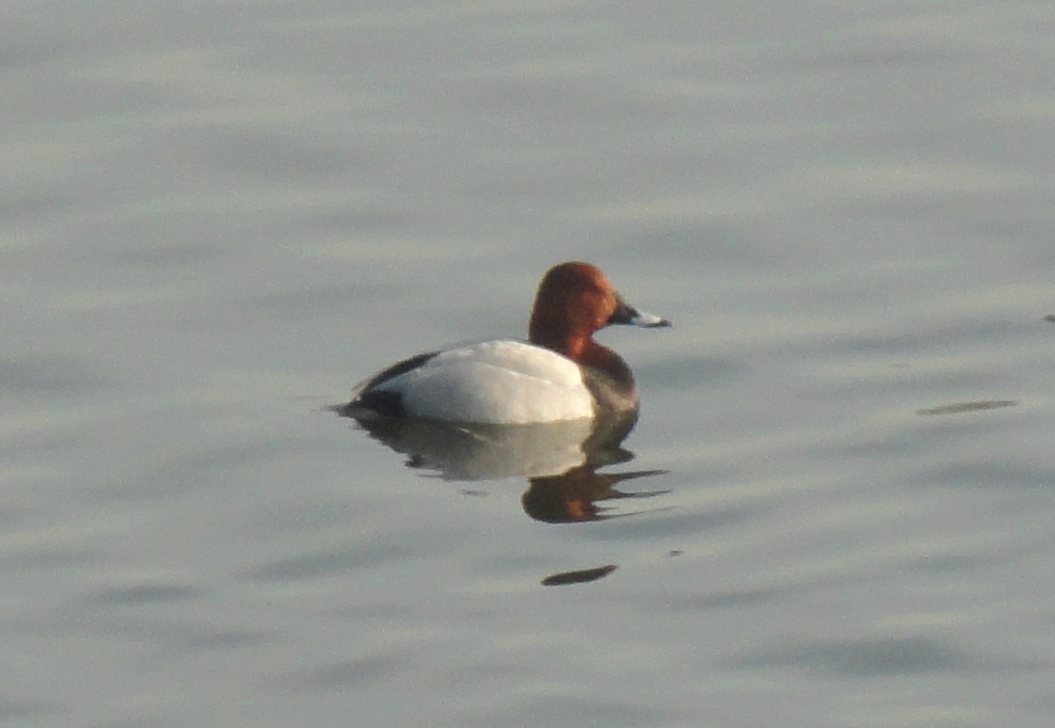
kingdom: Animalia
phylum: Chordata
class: Aves
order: Anseriformes
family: Anatidae
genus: Aythya
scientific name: Aythya ferina
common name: Common pochard
